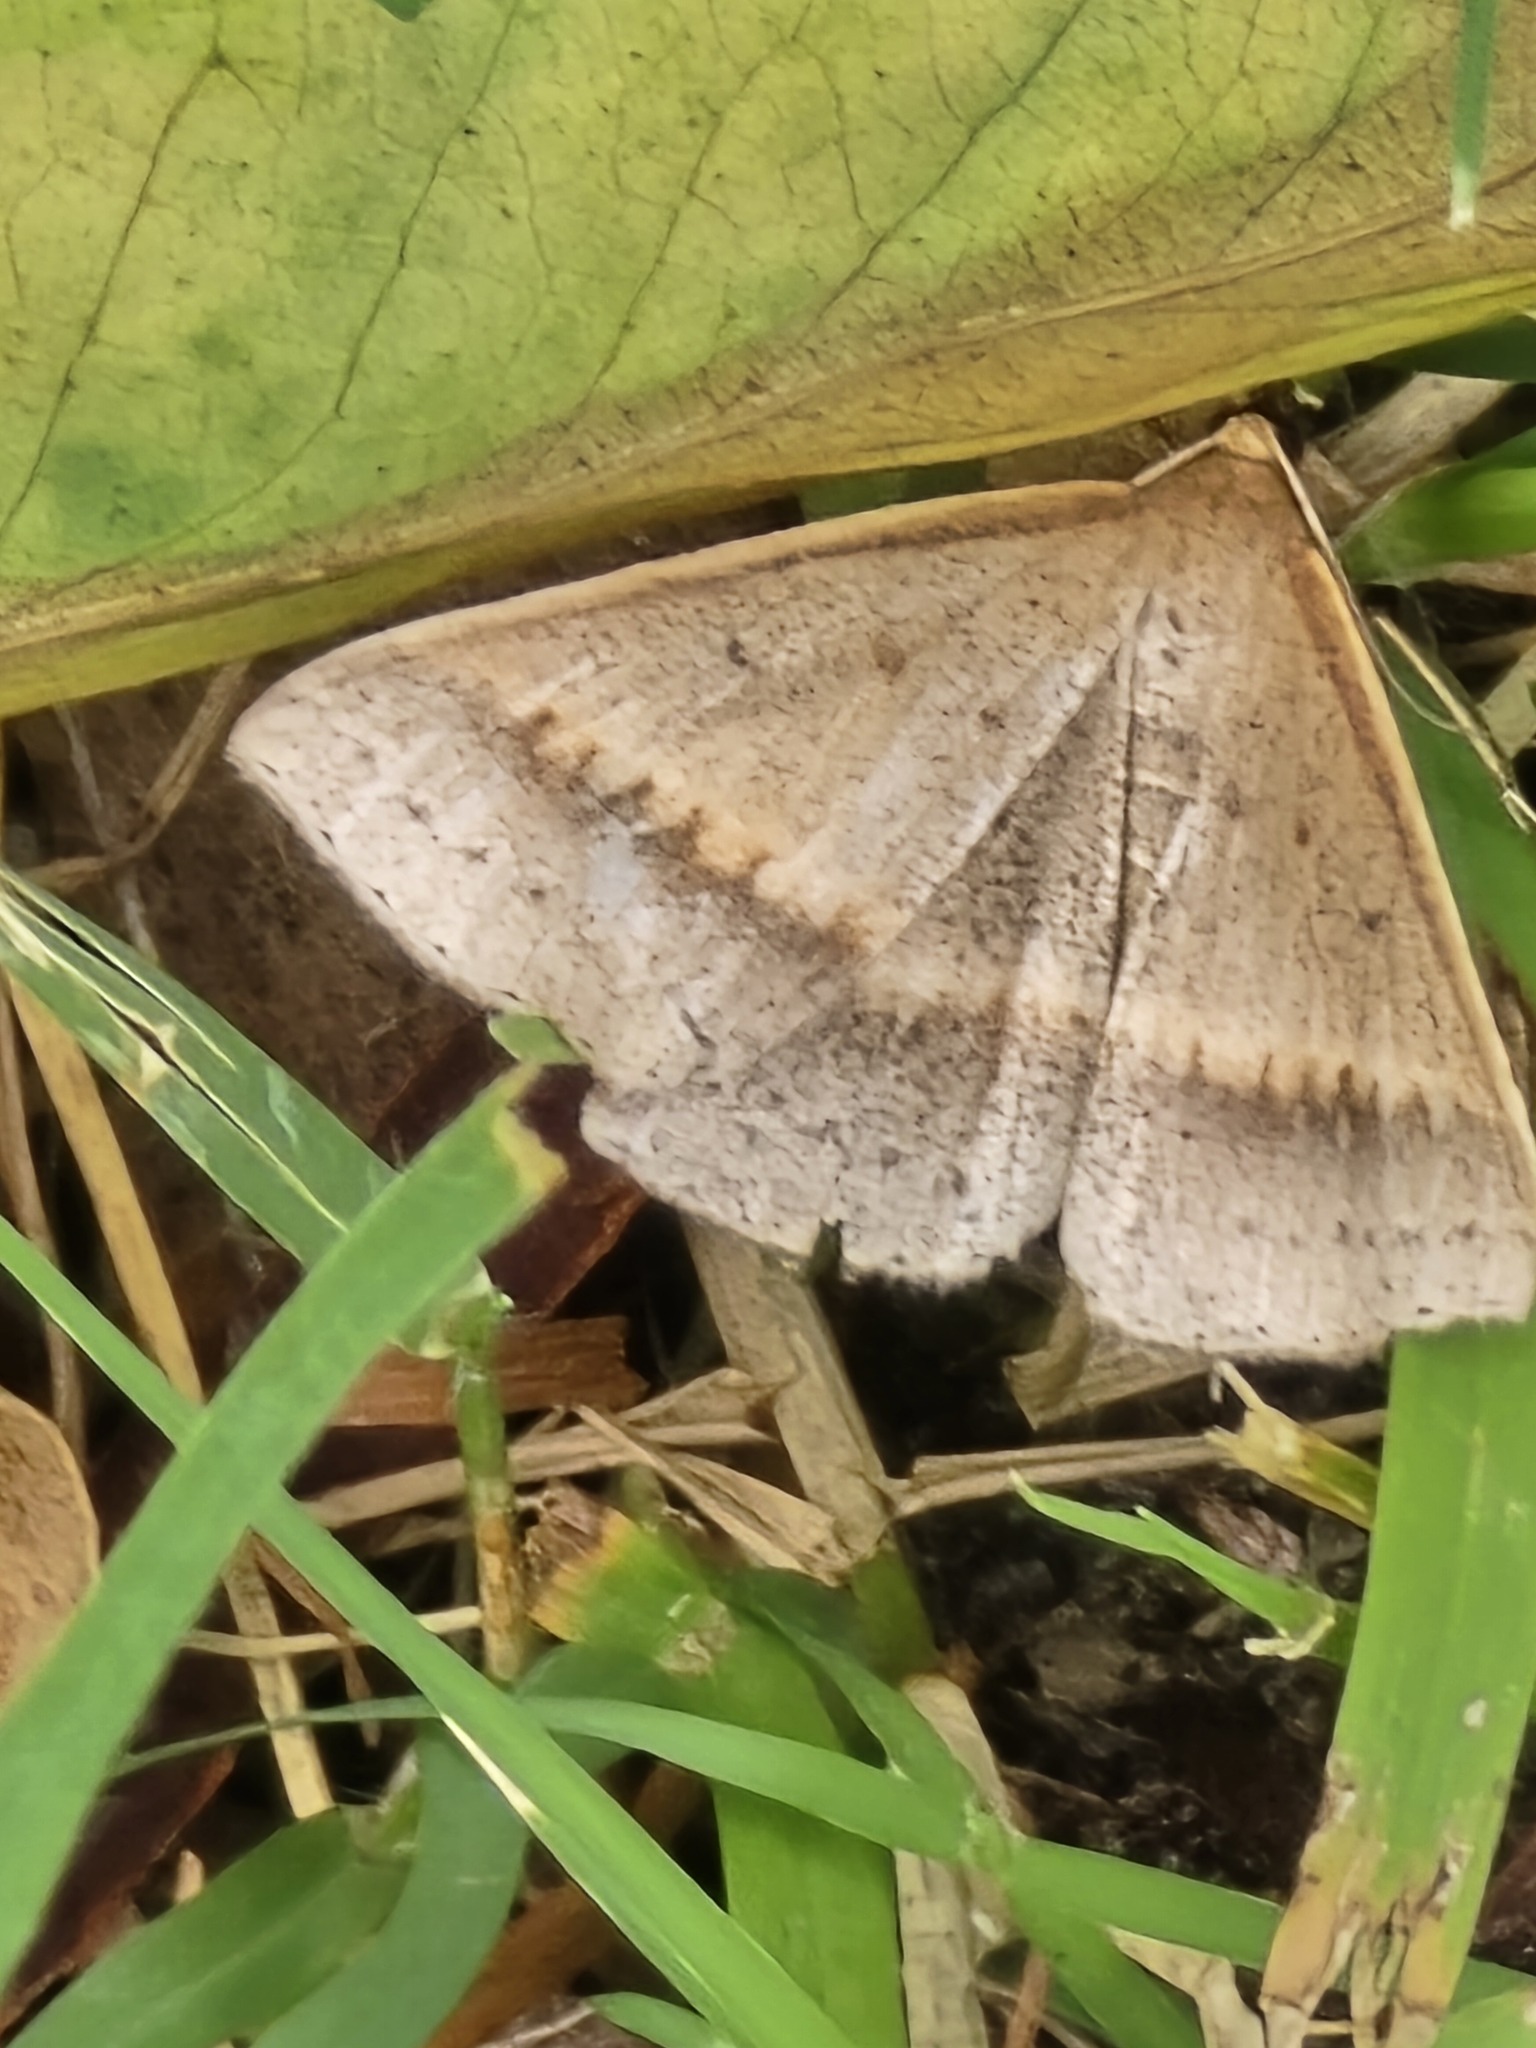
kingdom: Animalia
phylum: Arthropoda
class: Insecta
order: Lepidoptera
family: Geometridae
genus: Epidesmia
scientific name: Epidesmia tryxaria
